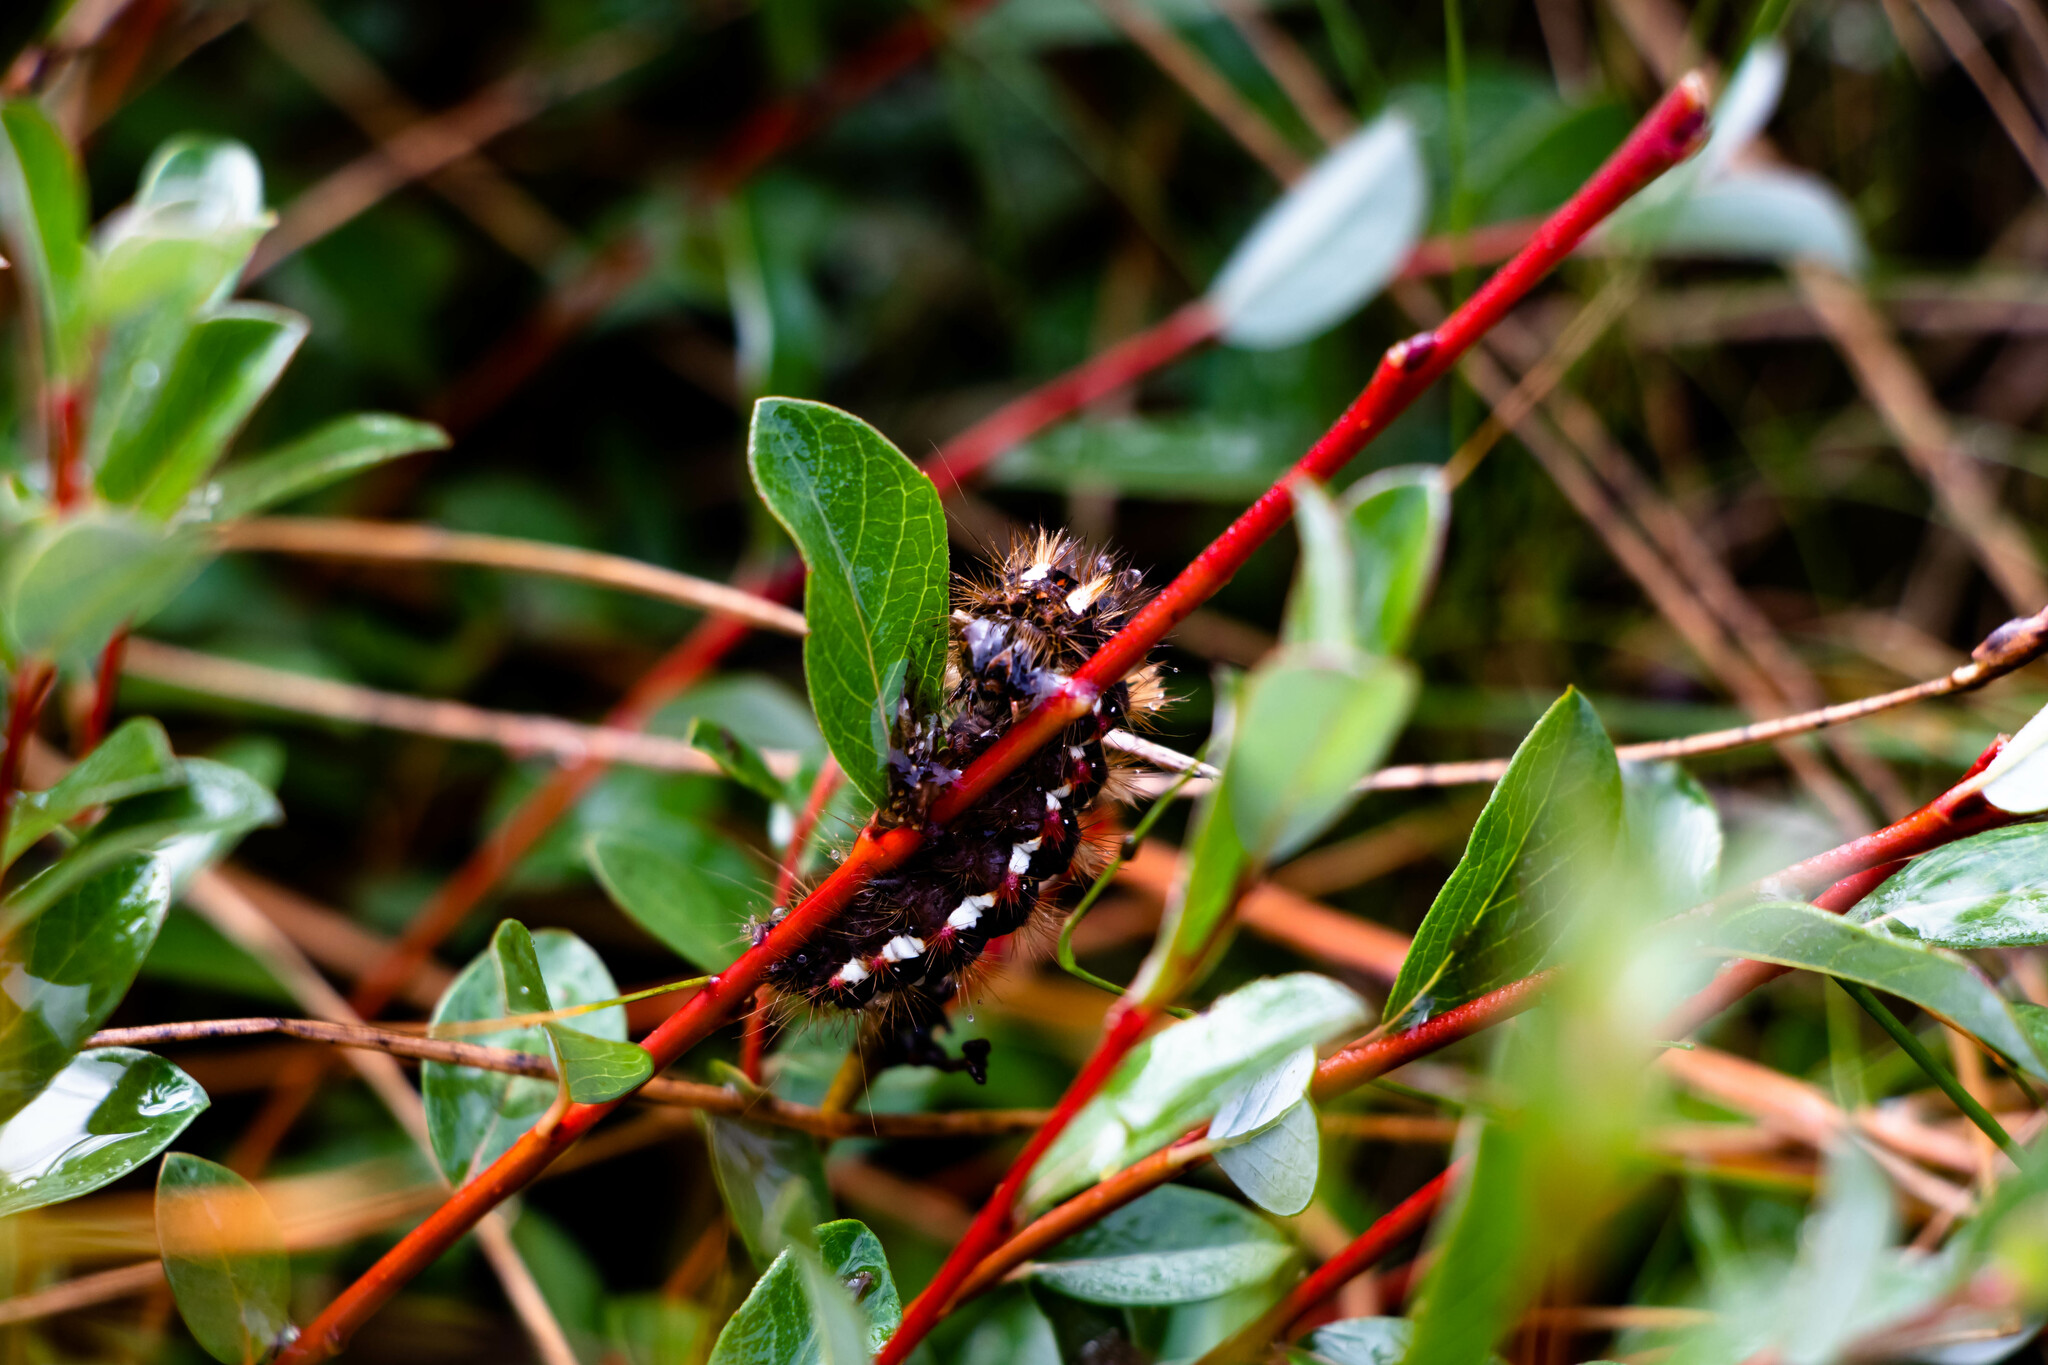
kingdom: Animalia
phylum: Arthropoda
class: Insecta
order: Lepidoptera
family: Noctuidae
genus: Acronicta
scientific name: Acronicta rumicis
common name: Knot grass
